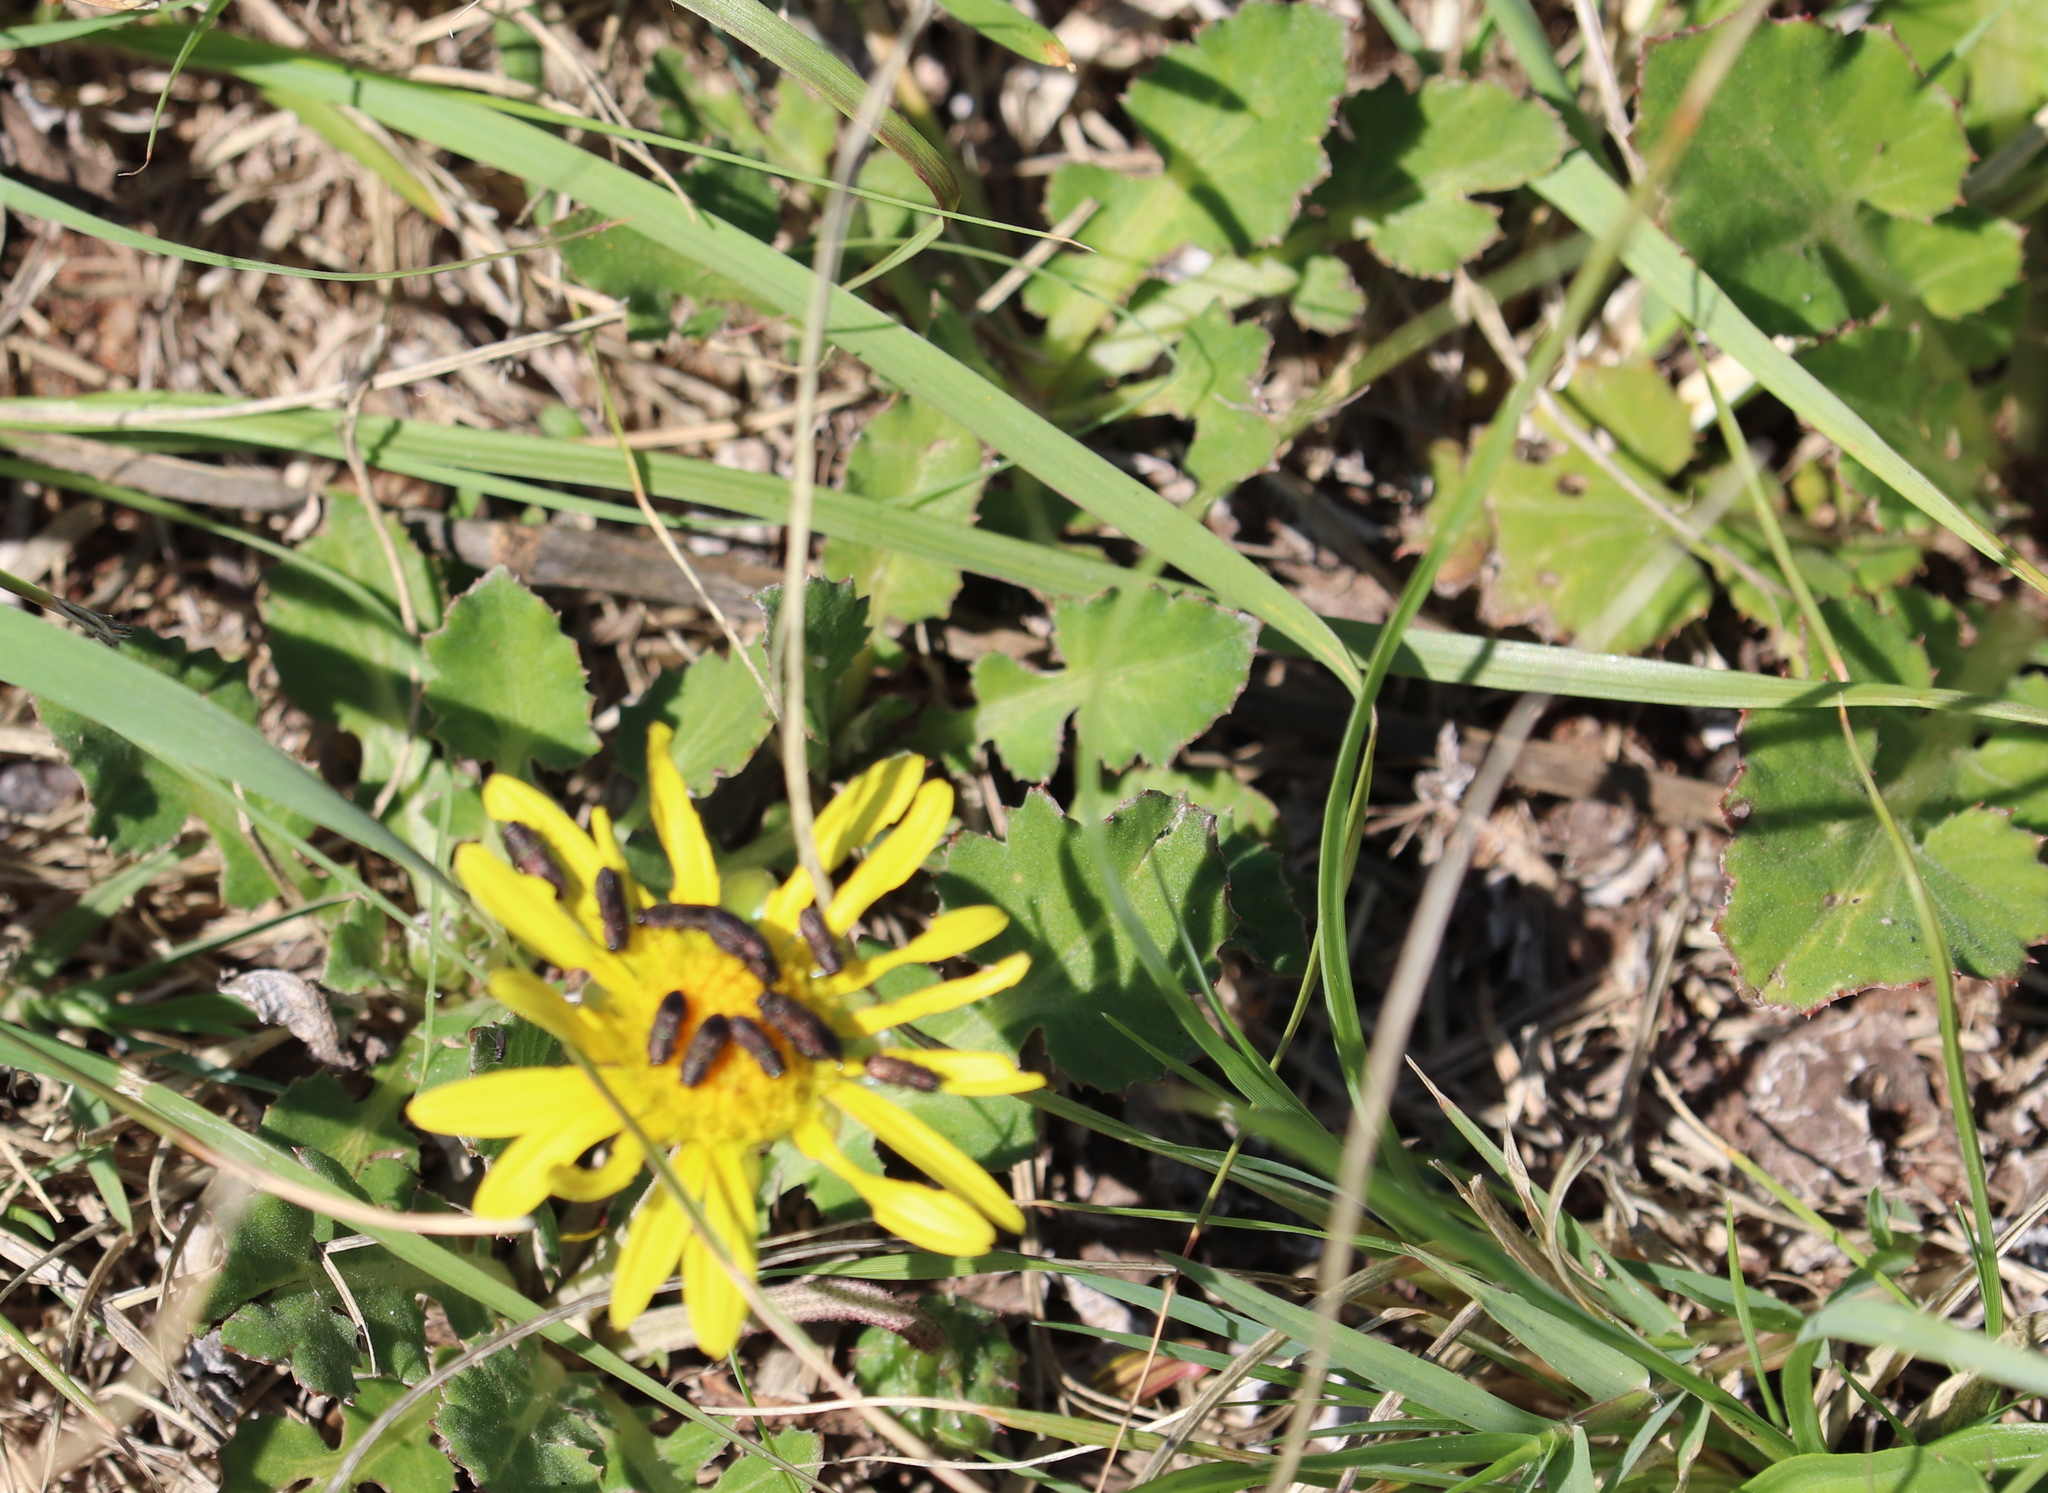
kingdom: Plantae
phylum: Tracheophyta
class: Magnoliopsida
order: Asterales
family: Asteraceae
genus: Arctotheca
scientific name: Arctotheca prostrata
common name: Capeweed
